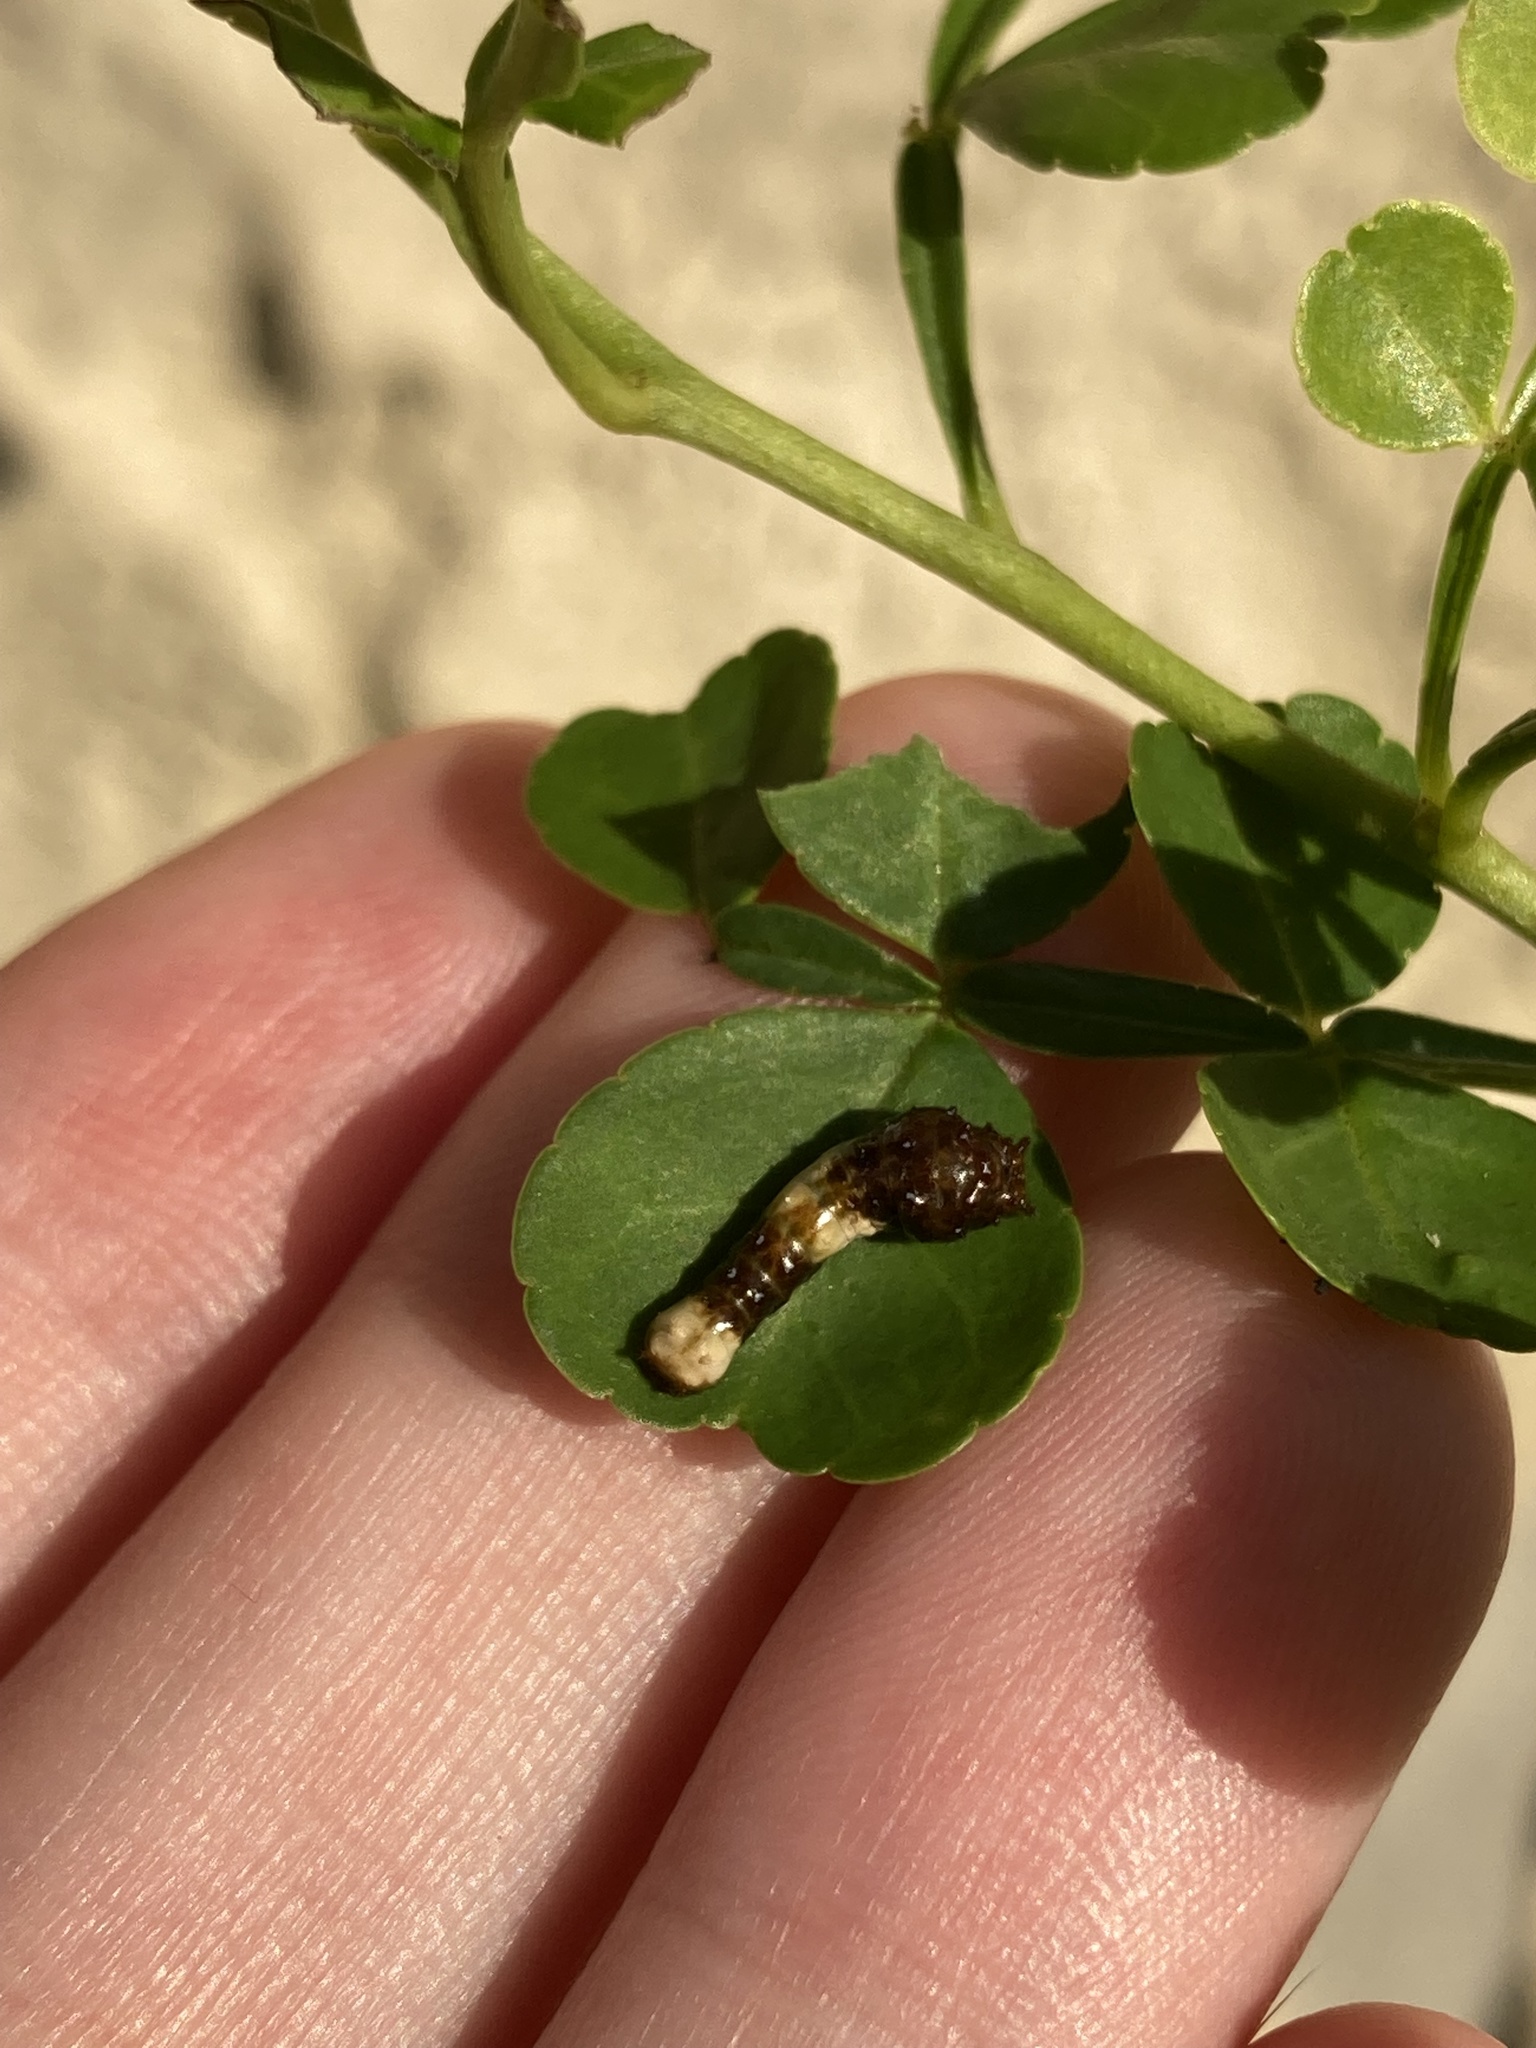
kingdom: Animalia
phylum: Arthropoda
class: Insecta
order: Lepidoptera
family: Papilionidae
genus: Papilio
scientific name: Papilio cresphontes
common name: Giant swallowtail
